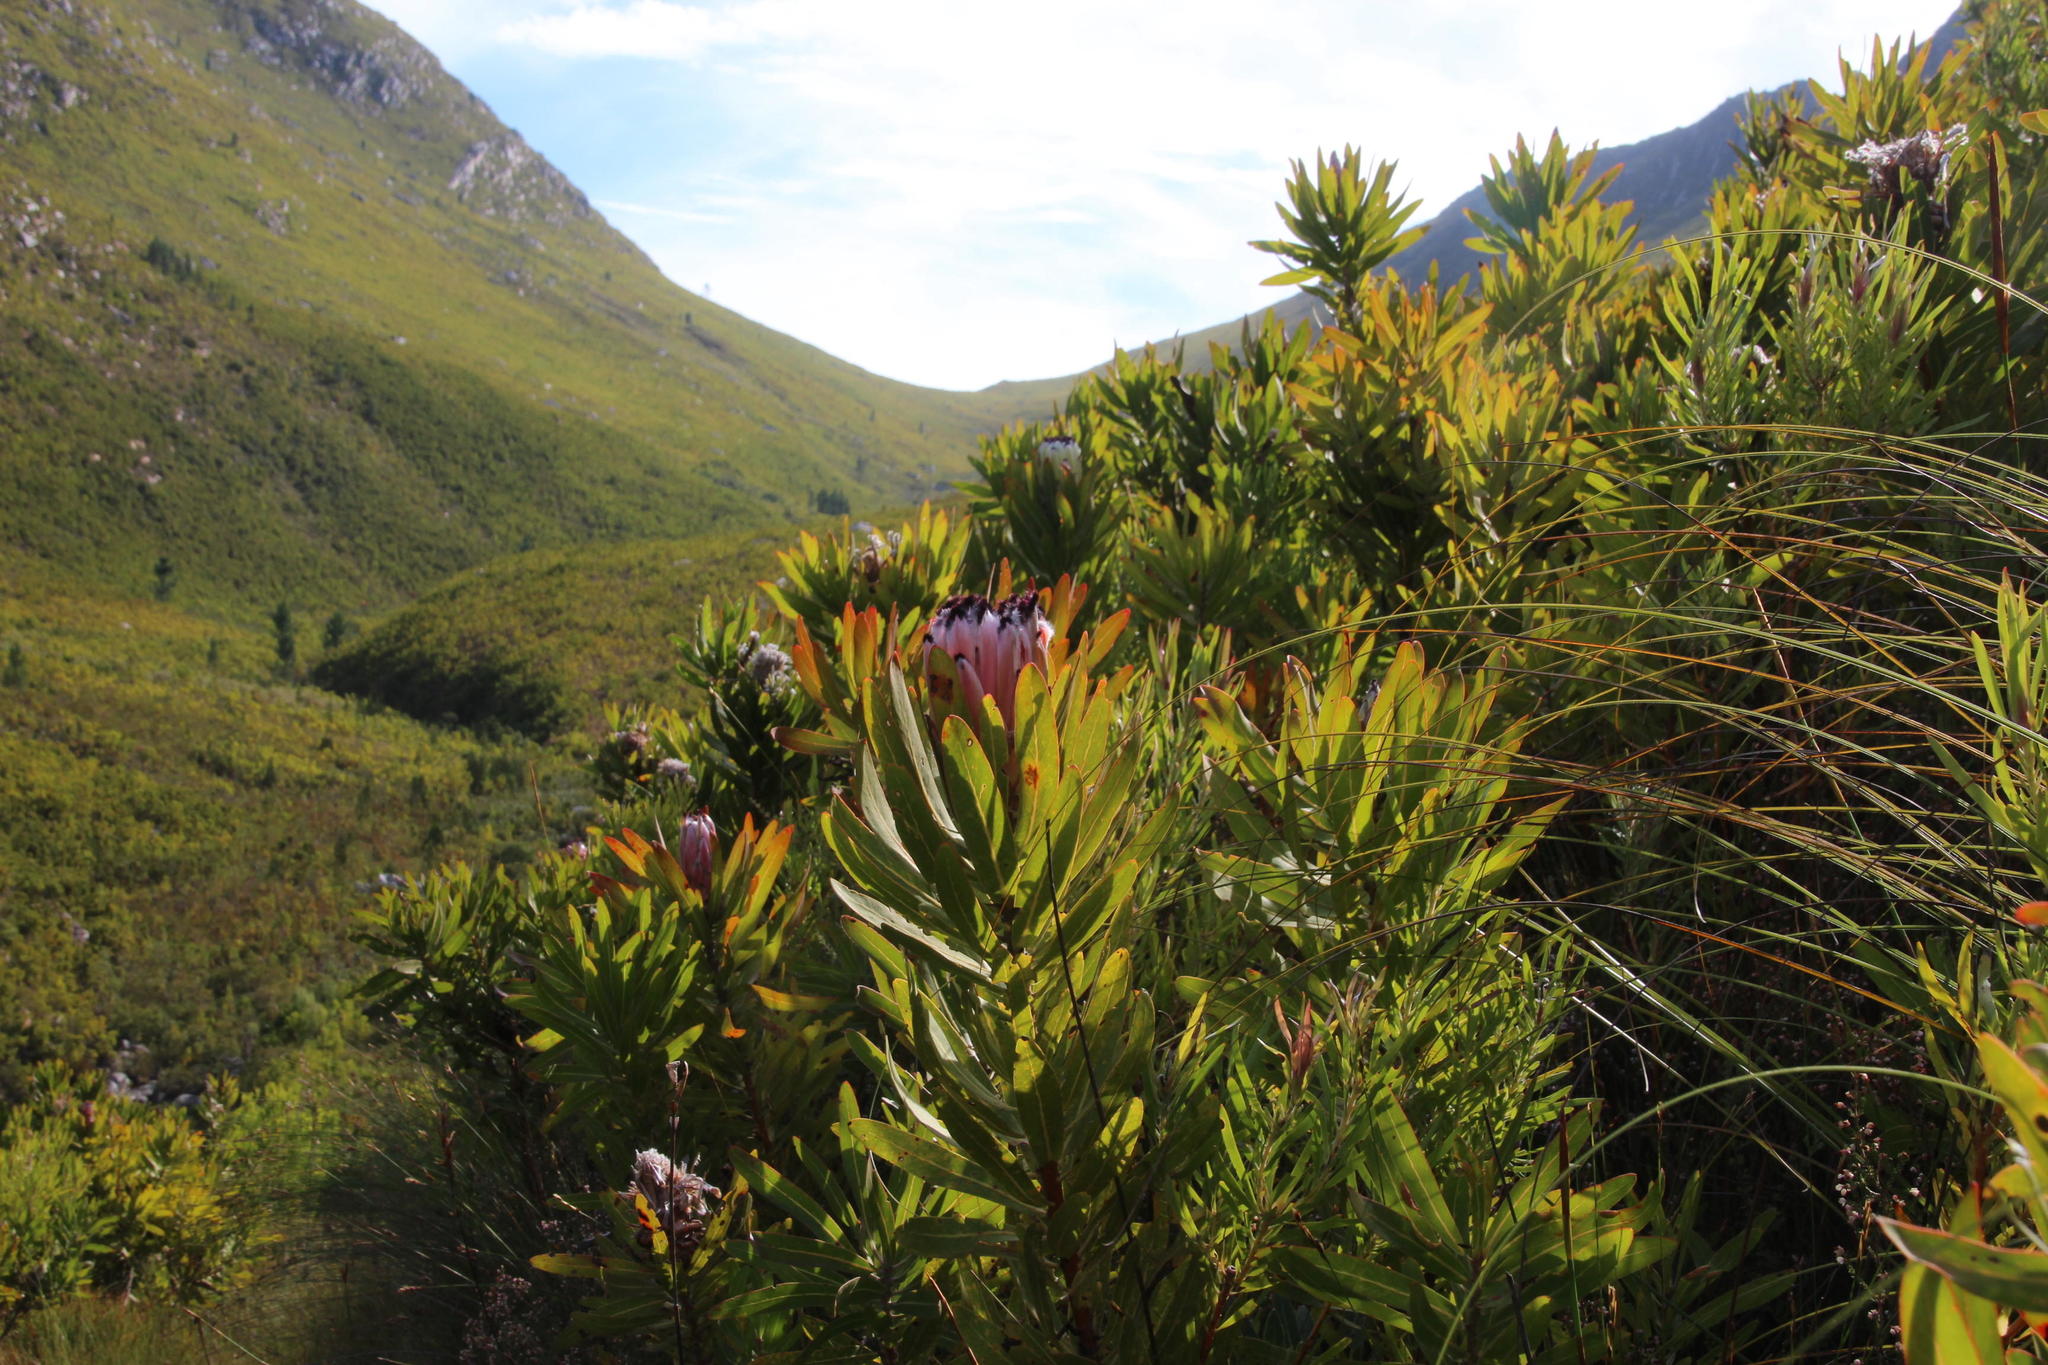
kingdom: Plantae
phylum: Tracheophyta
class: Magnoliopsida
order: Proteales
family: Proteaceae
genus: Protea
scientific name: Protea neriifolia
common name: Blue sugarbush
